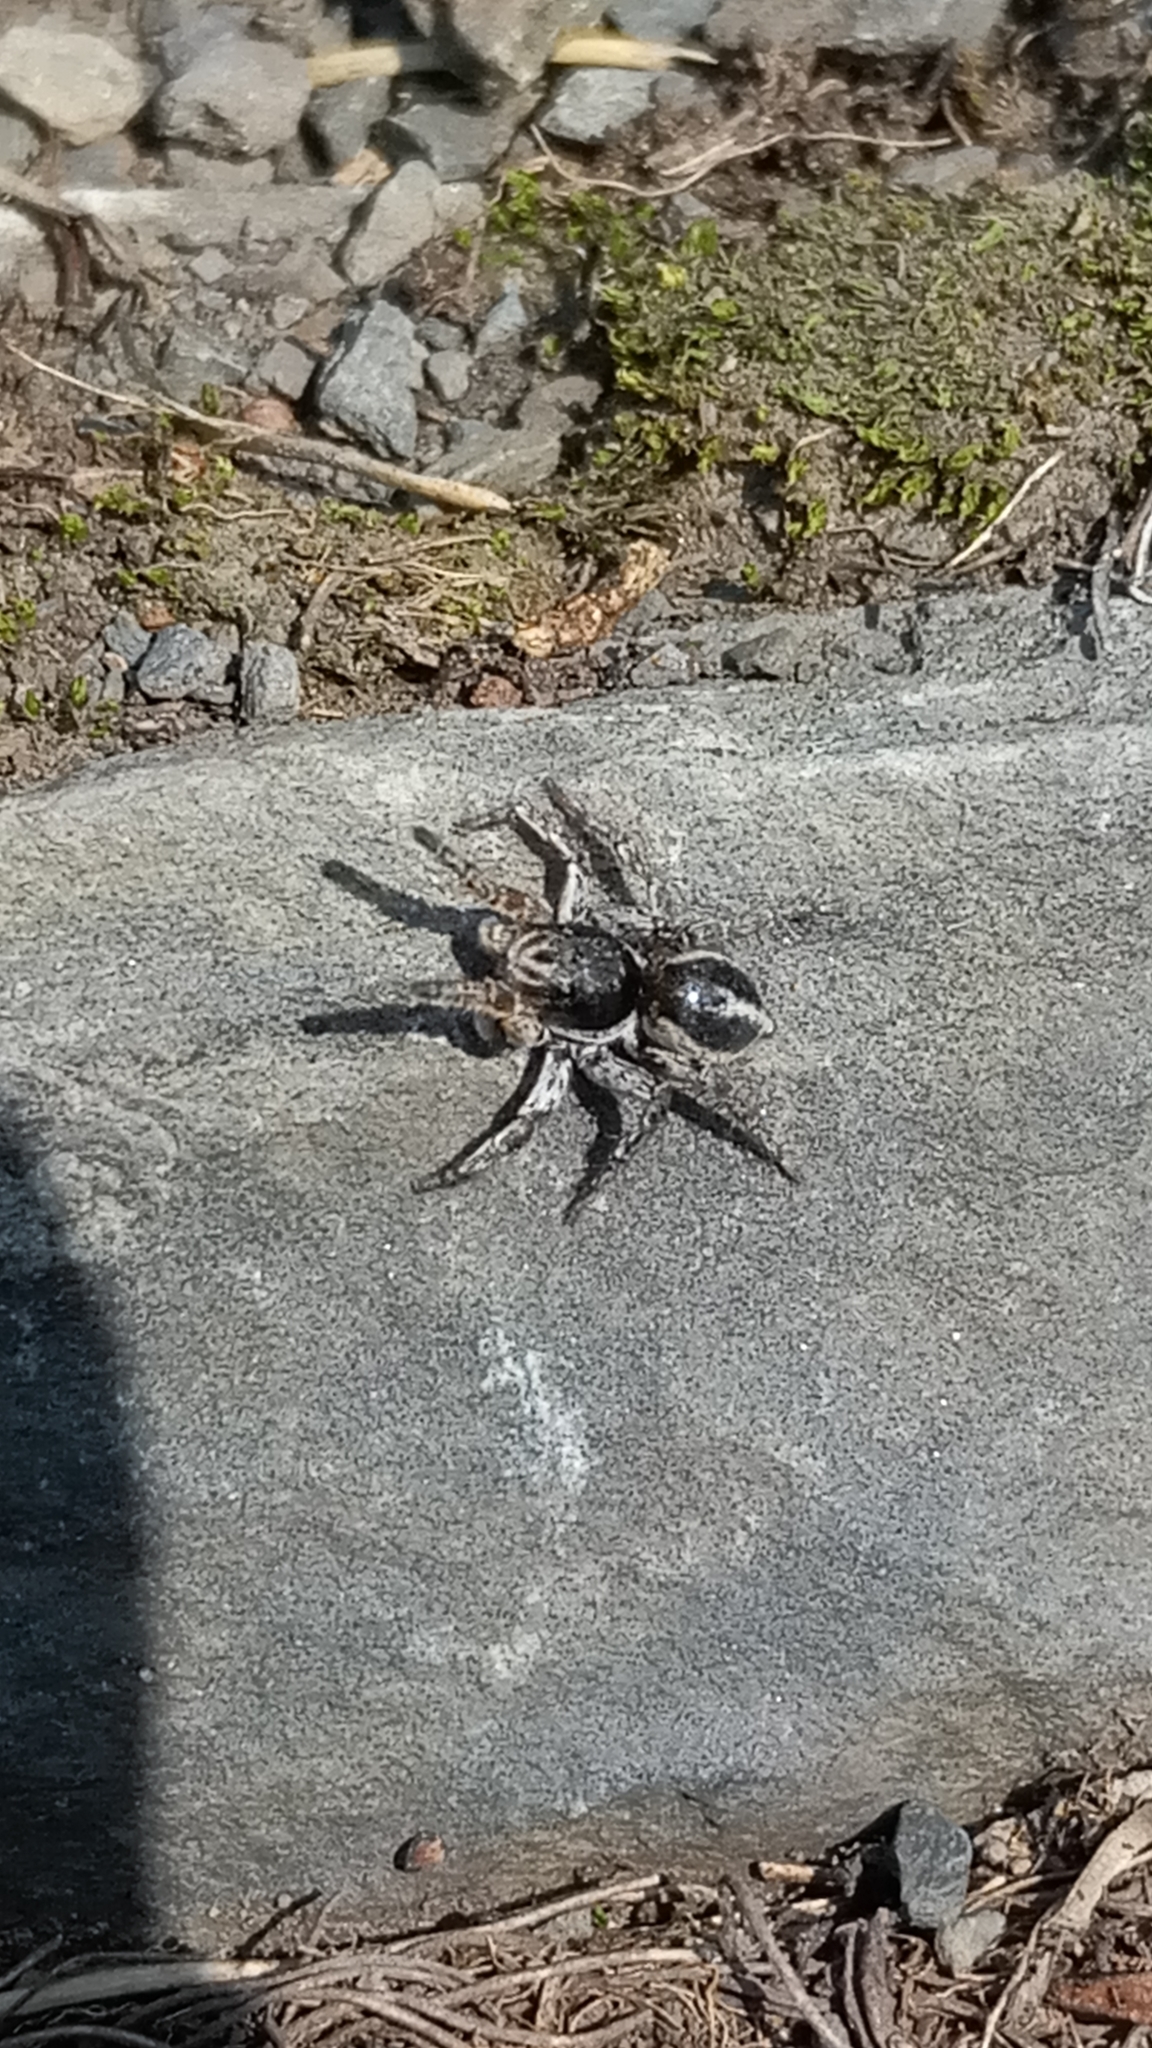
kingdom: Animalia
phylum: Arthropoda
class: Arachnida
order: Araneae
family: Salticidae
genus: Aelurillus
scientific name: Aelurillus v-insignitus
